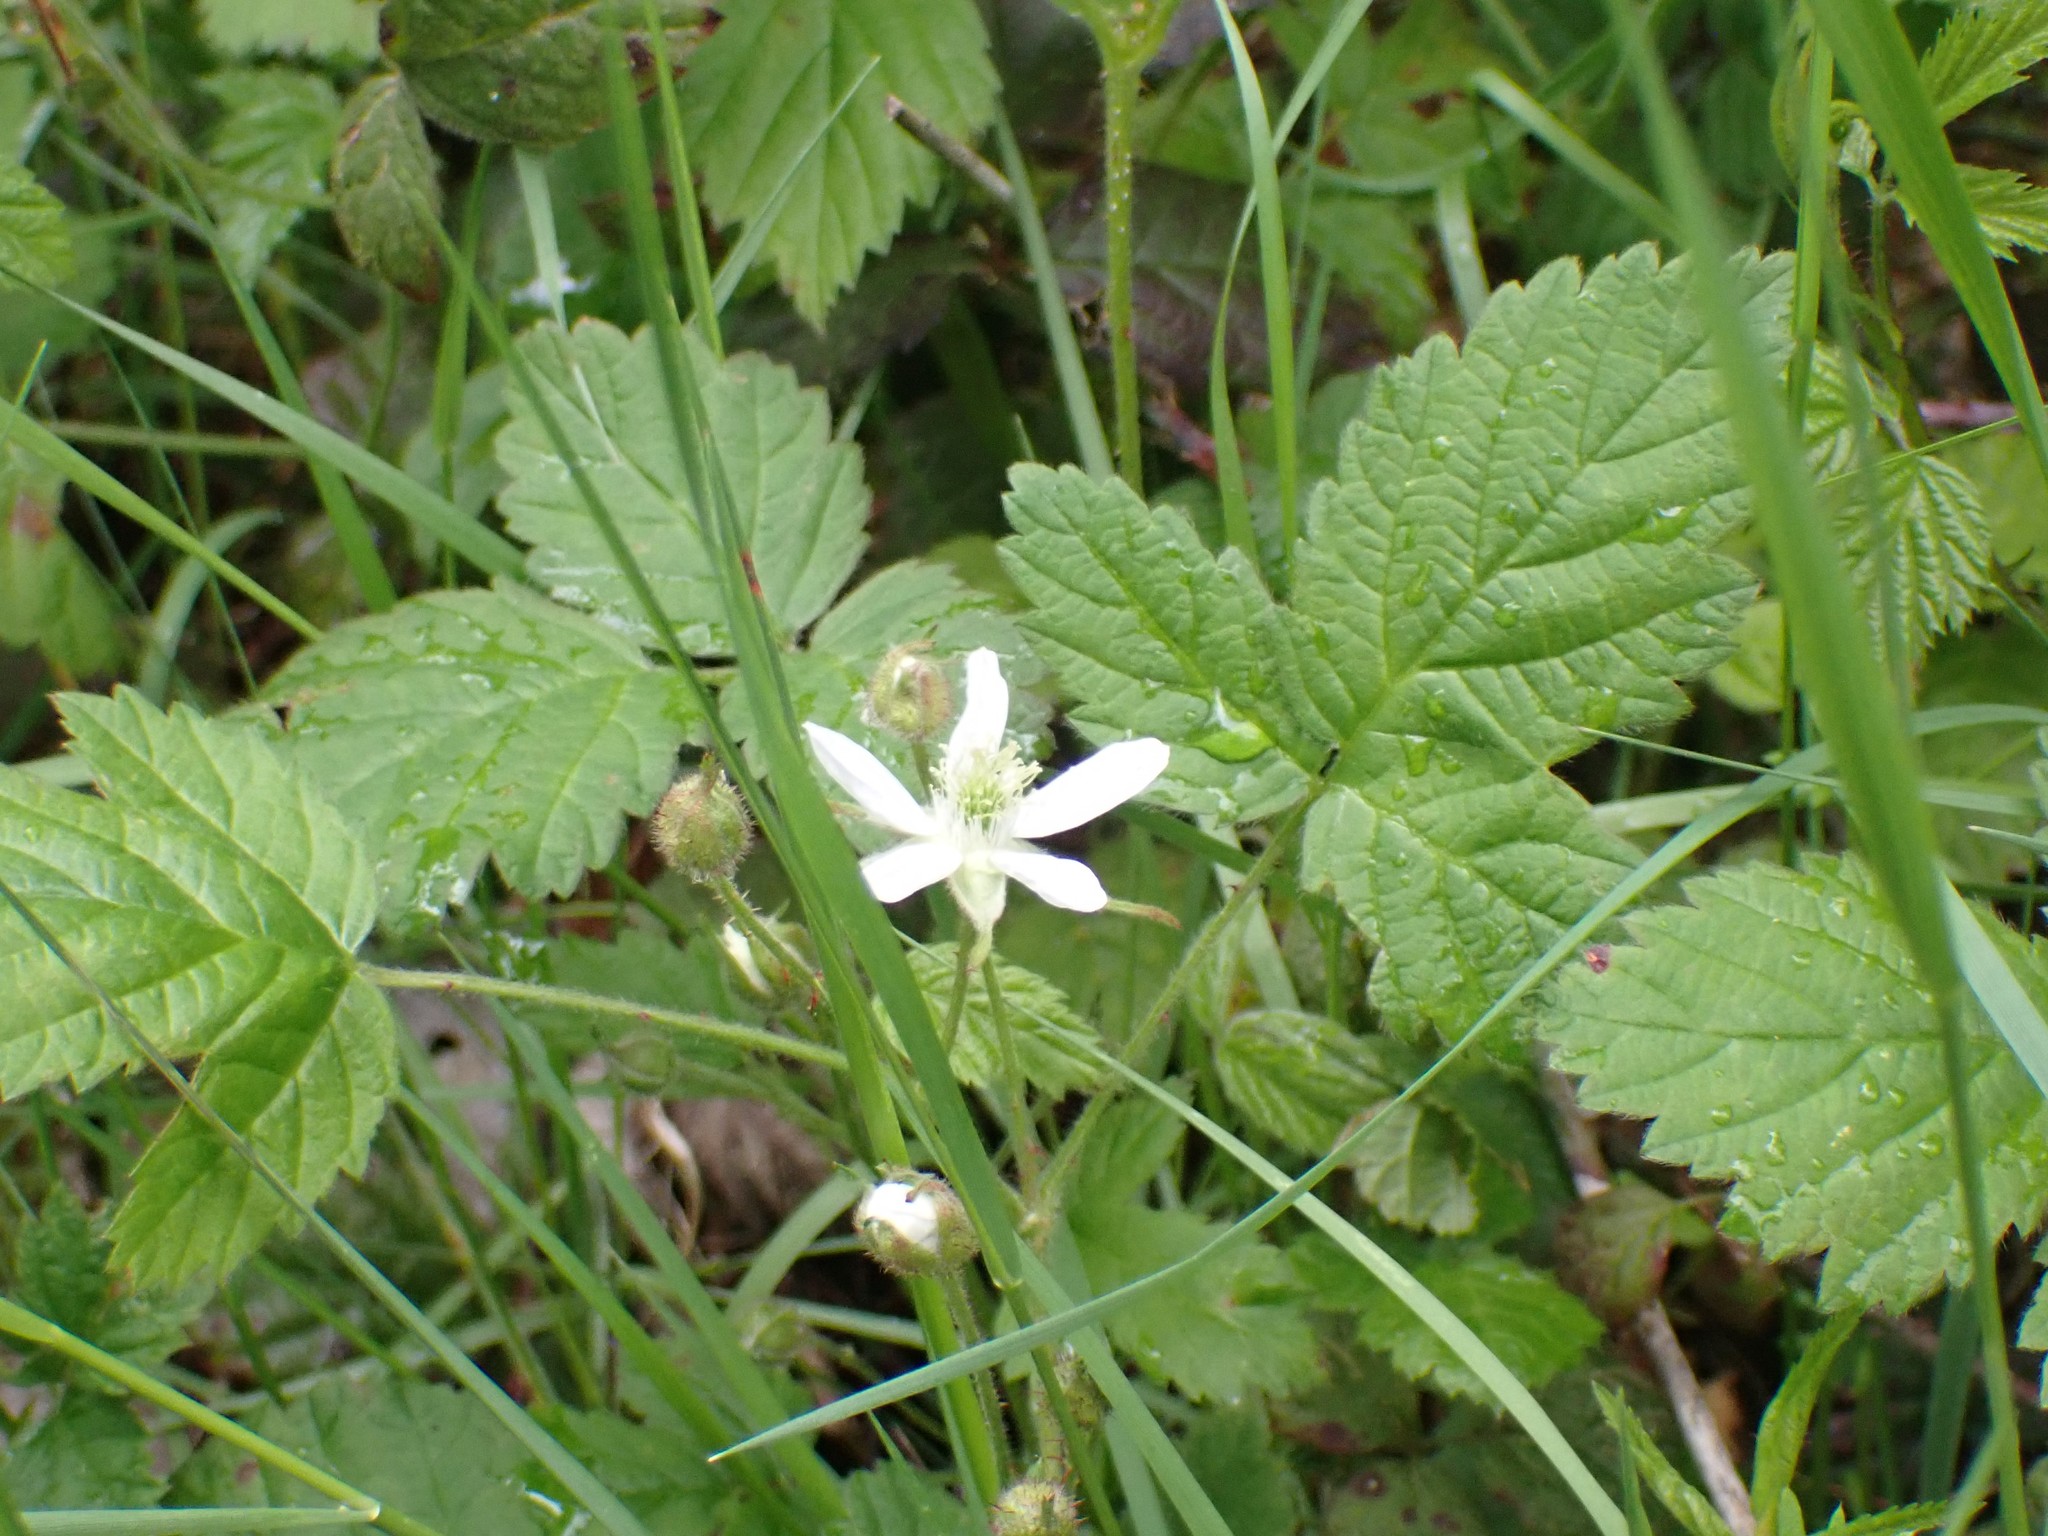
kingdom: Plantae
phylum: Tracheophyta
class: Magnoliopsida
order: Rosales
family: Rosaceae
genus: Rubus
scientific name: Rubus ursinus
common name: Pacific blackberry
